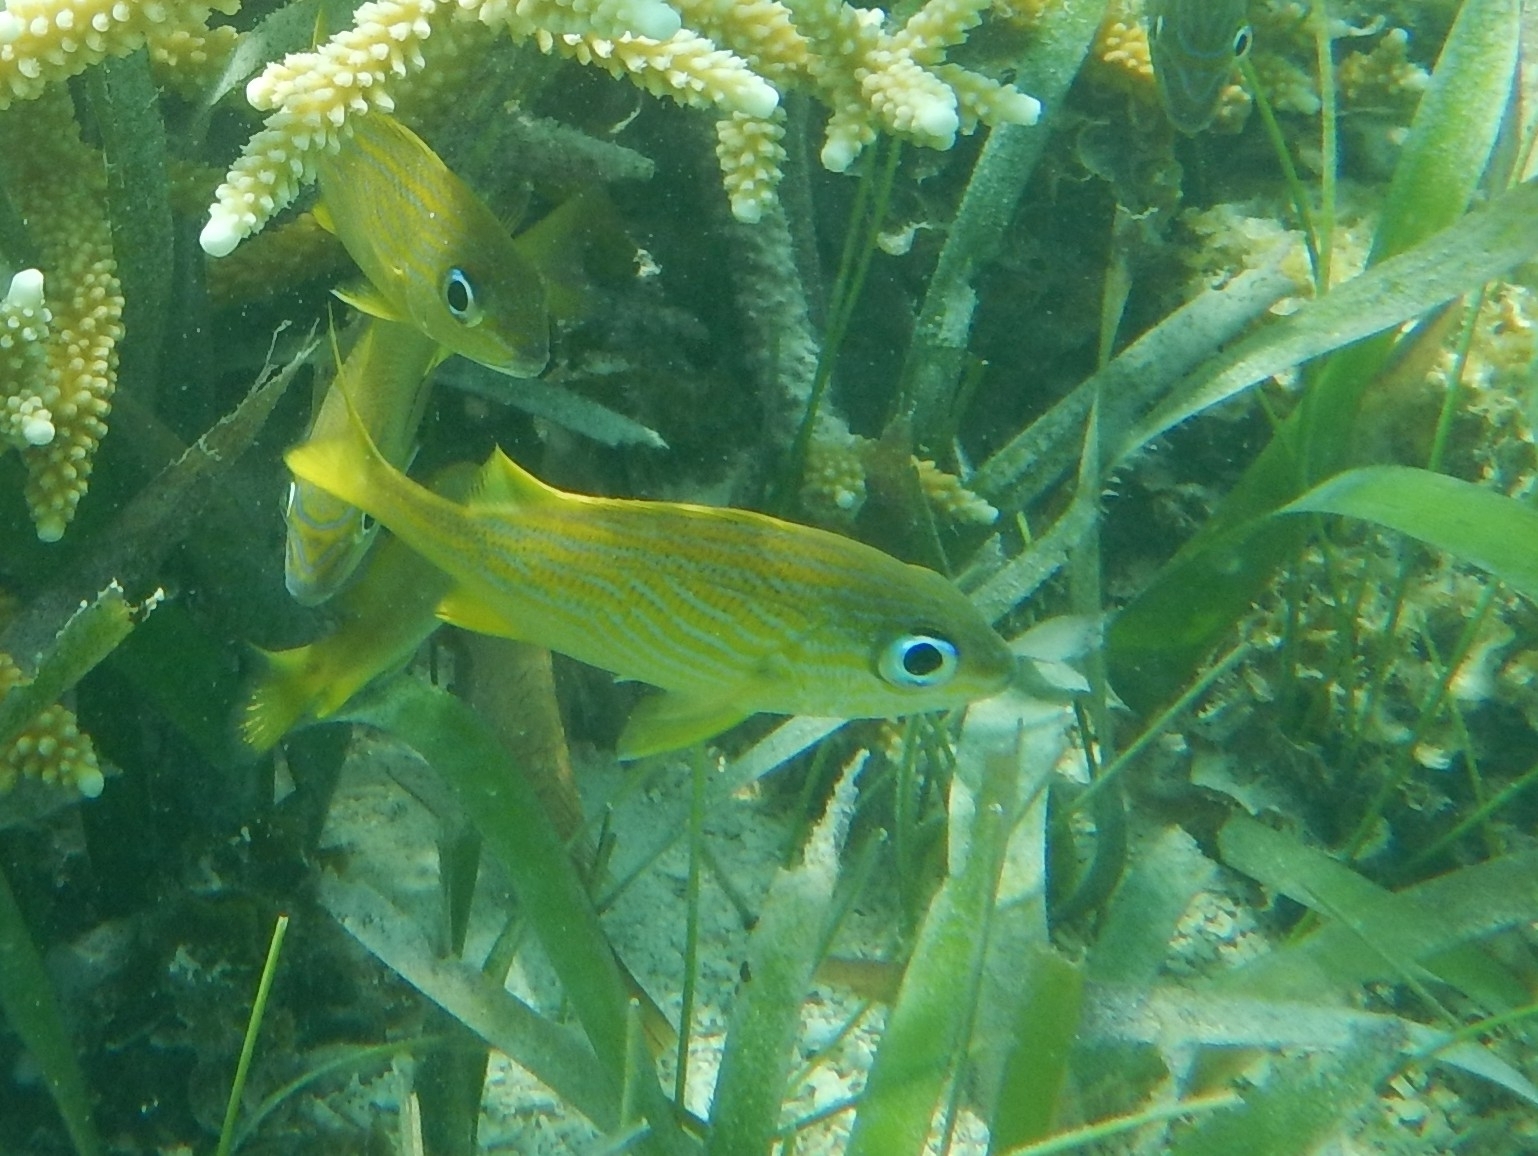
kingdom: Animalia
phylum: Chordata
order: Perciformes
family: Haemulidae
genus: Haemulon
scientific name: Haemulon flavolineatum
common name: French grunt
